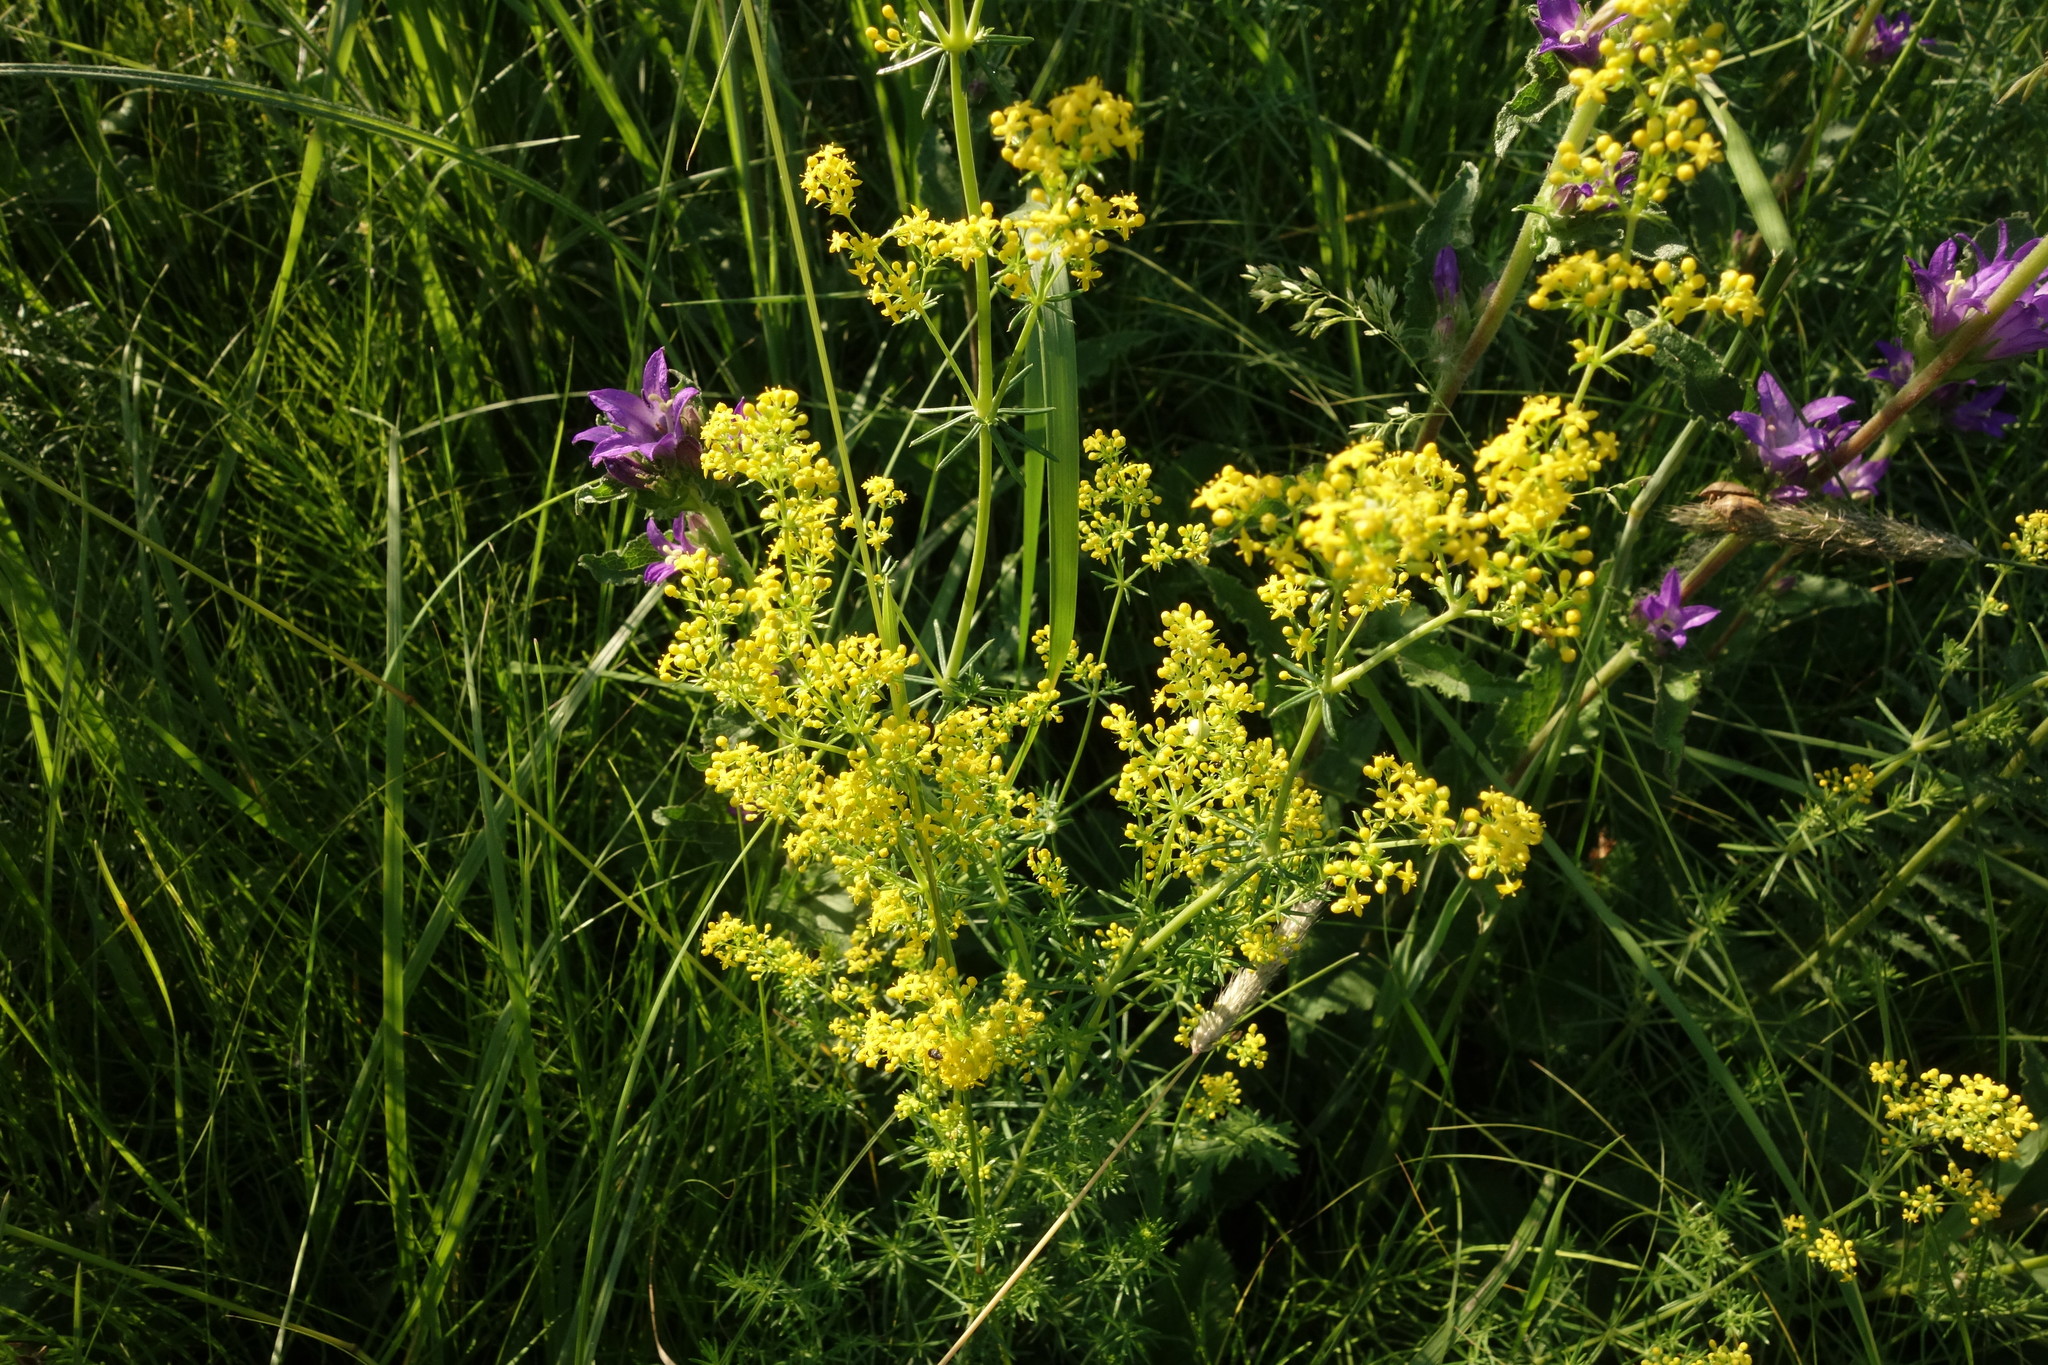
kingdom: Plantae
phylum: Tracheophyta
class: Magnoliopsida
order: Gentianales
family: Rubiaceae
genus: Galium
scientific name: Galium verum
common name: Lady's bedstraw
